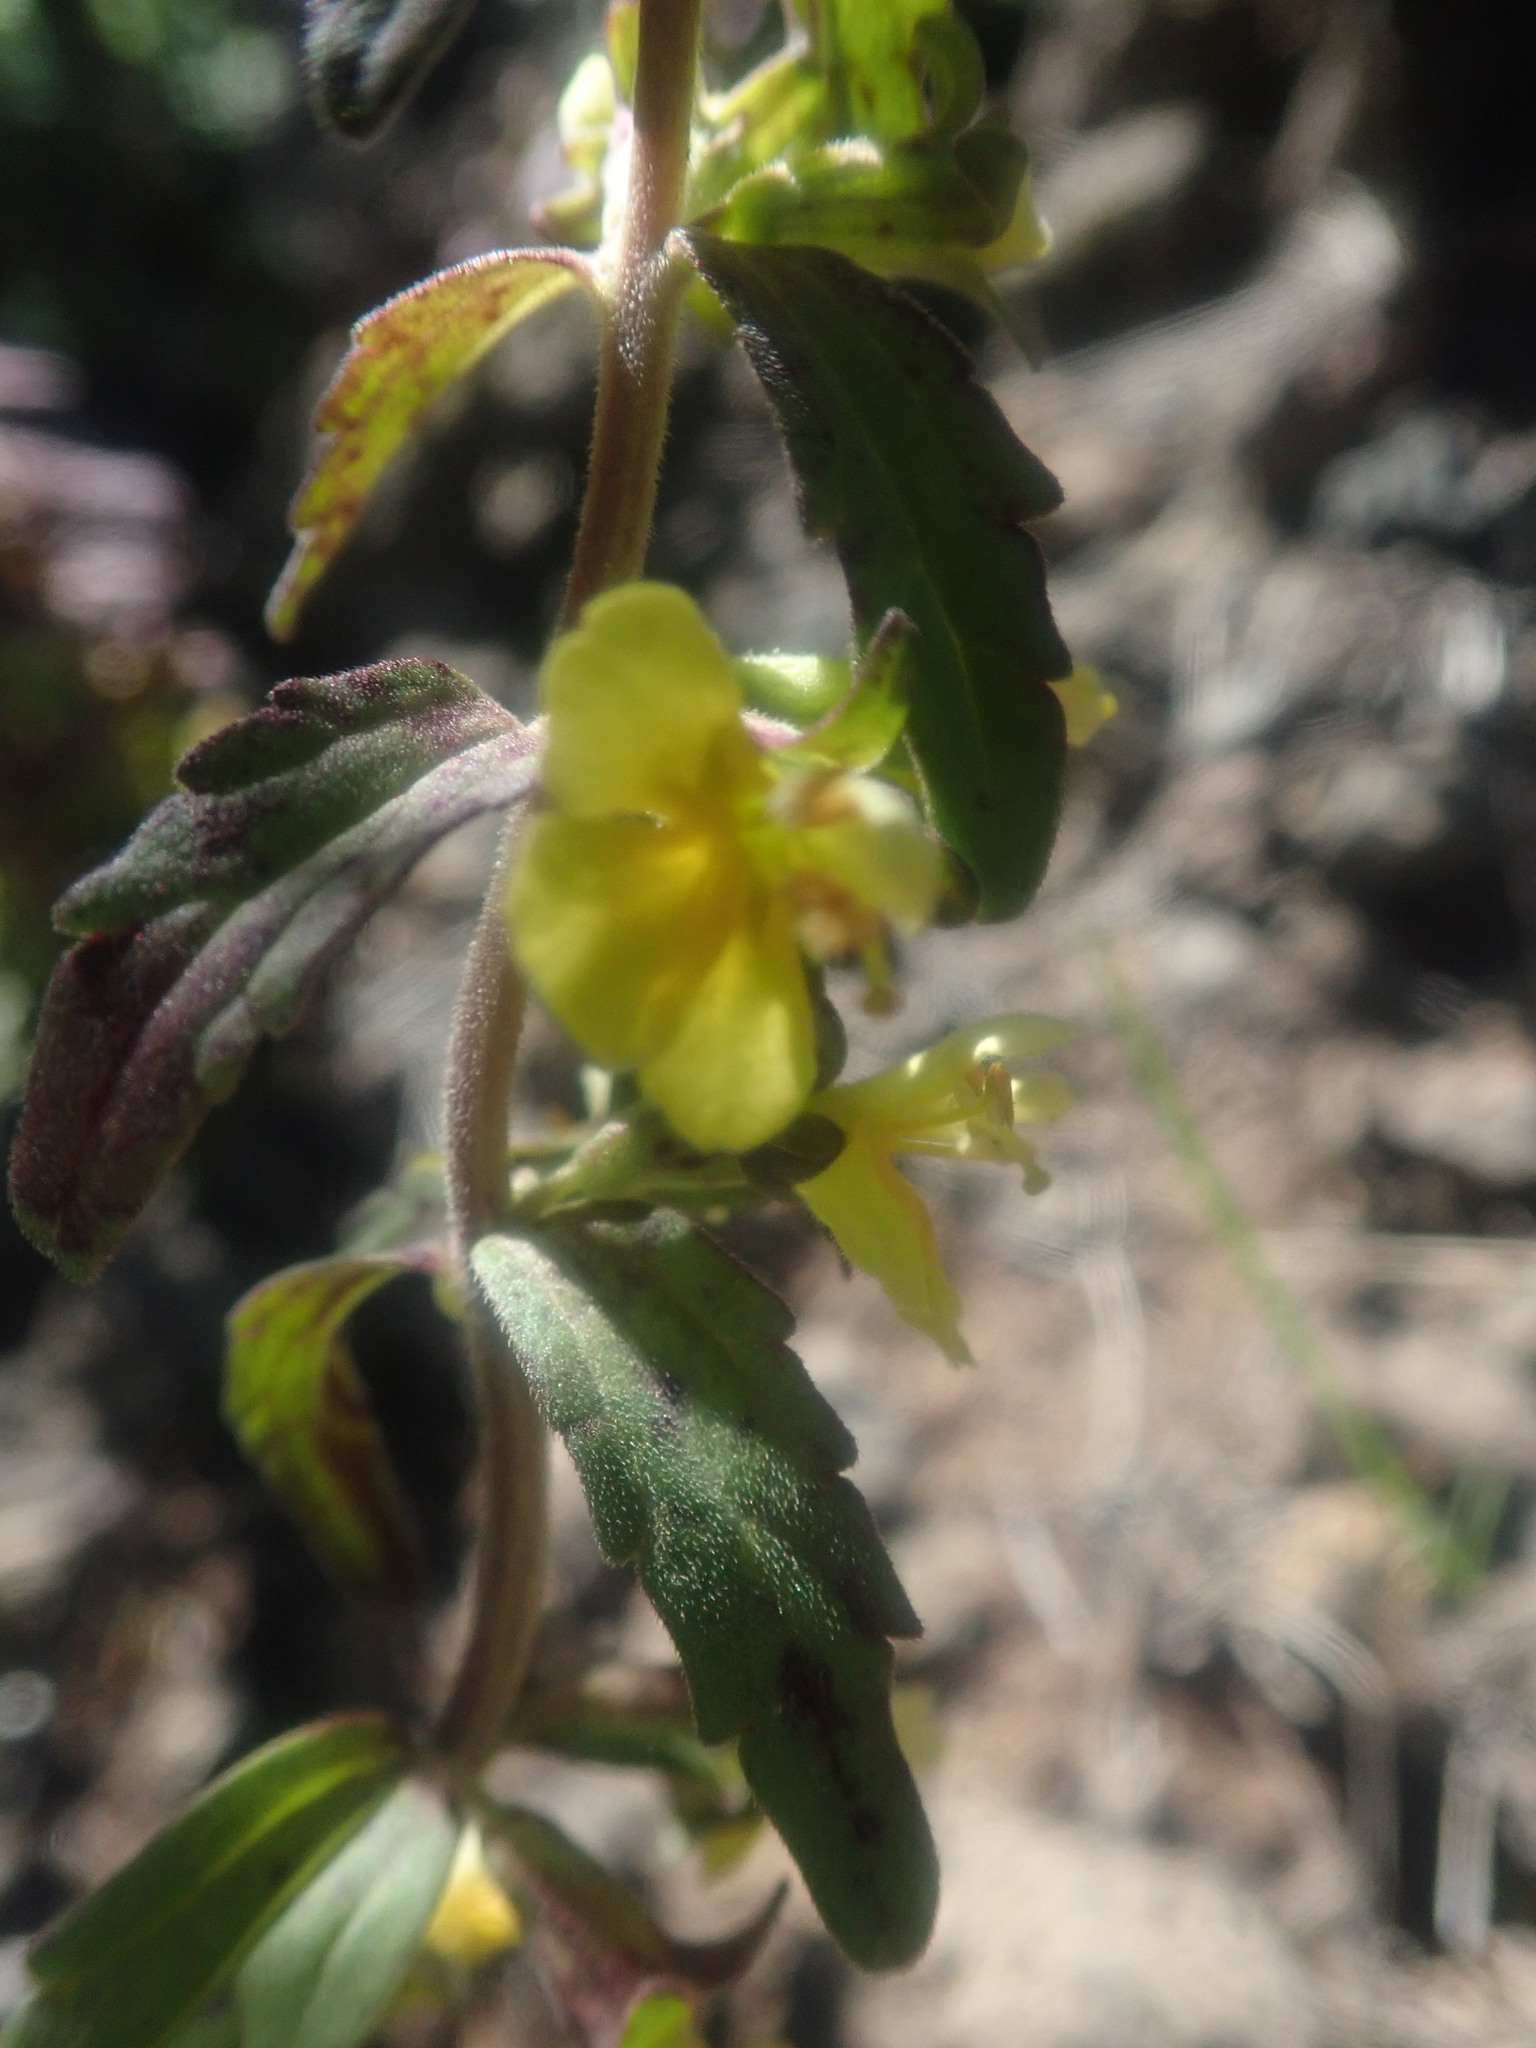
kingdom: Plantae
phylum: Tracheophyta
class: Magnoliopsida
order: Lamiales
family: Orobanchaceae
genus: Odontites
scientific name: Odontites hollianus
